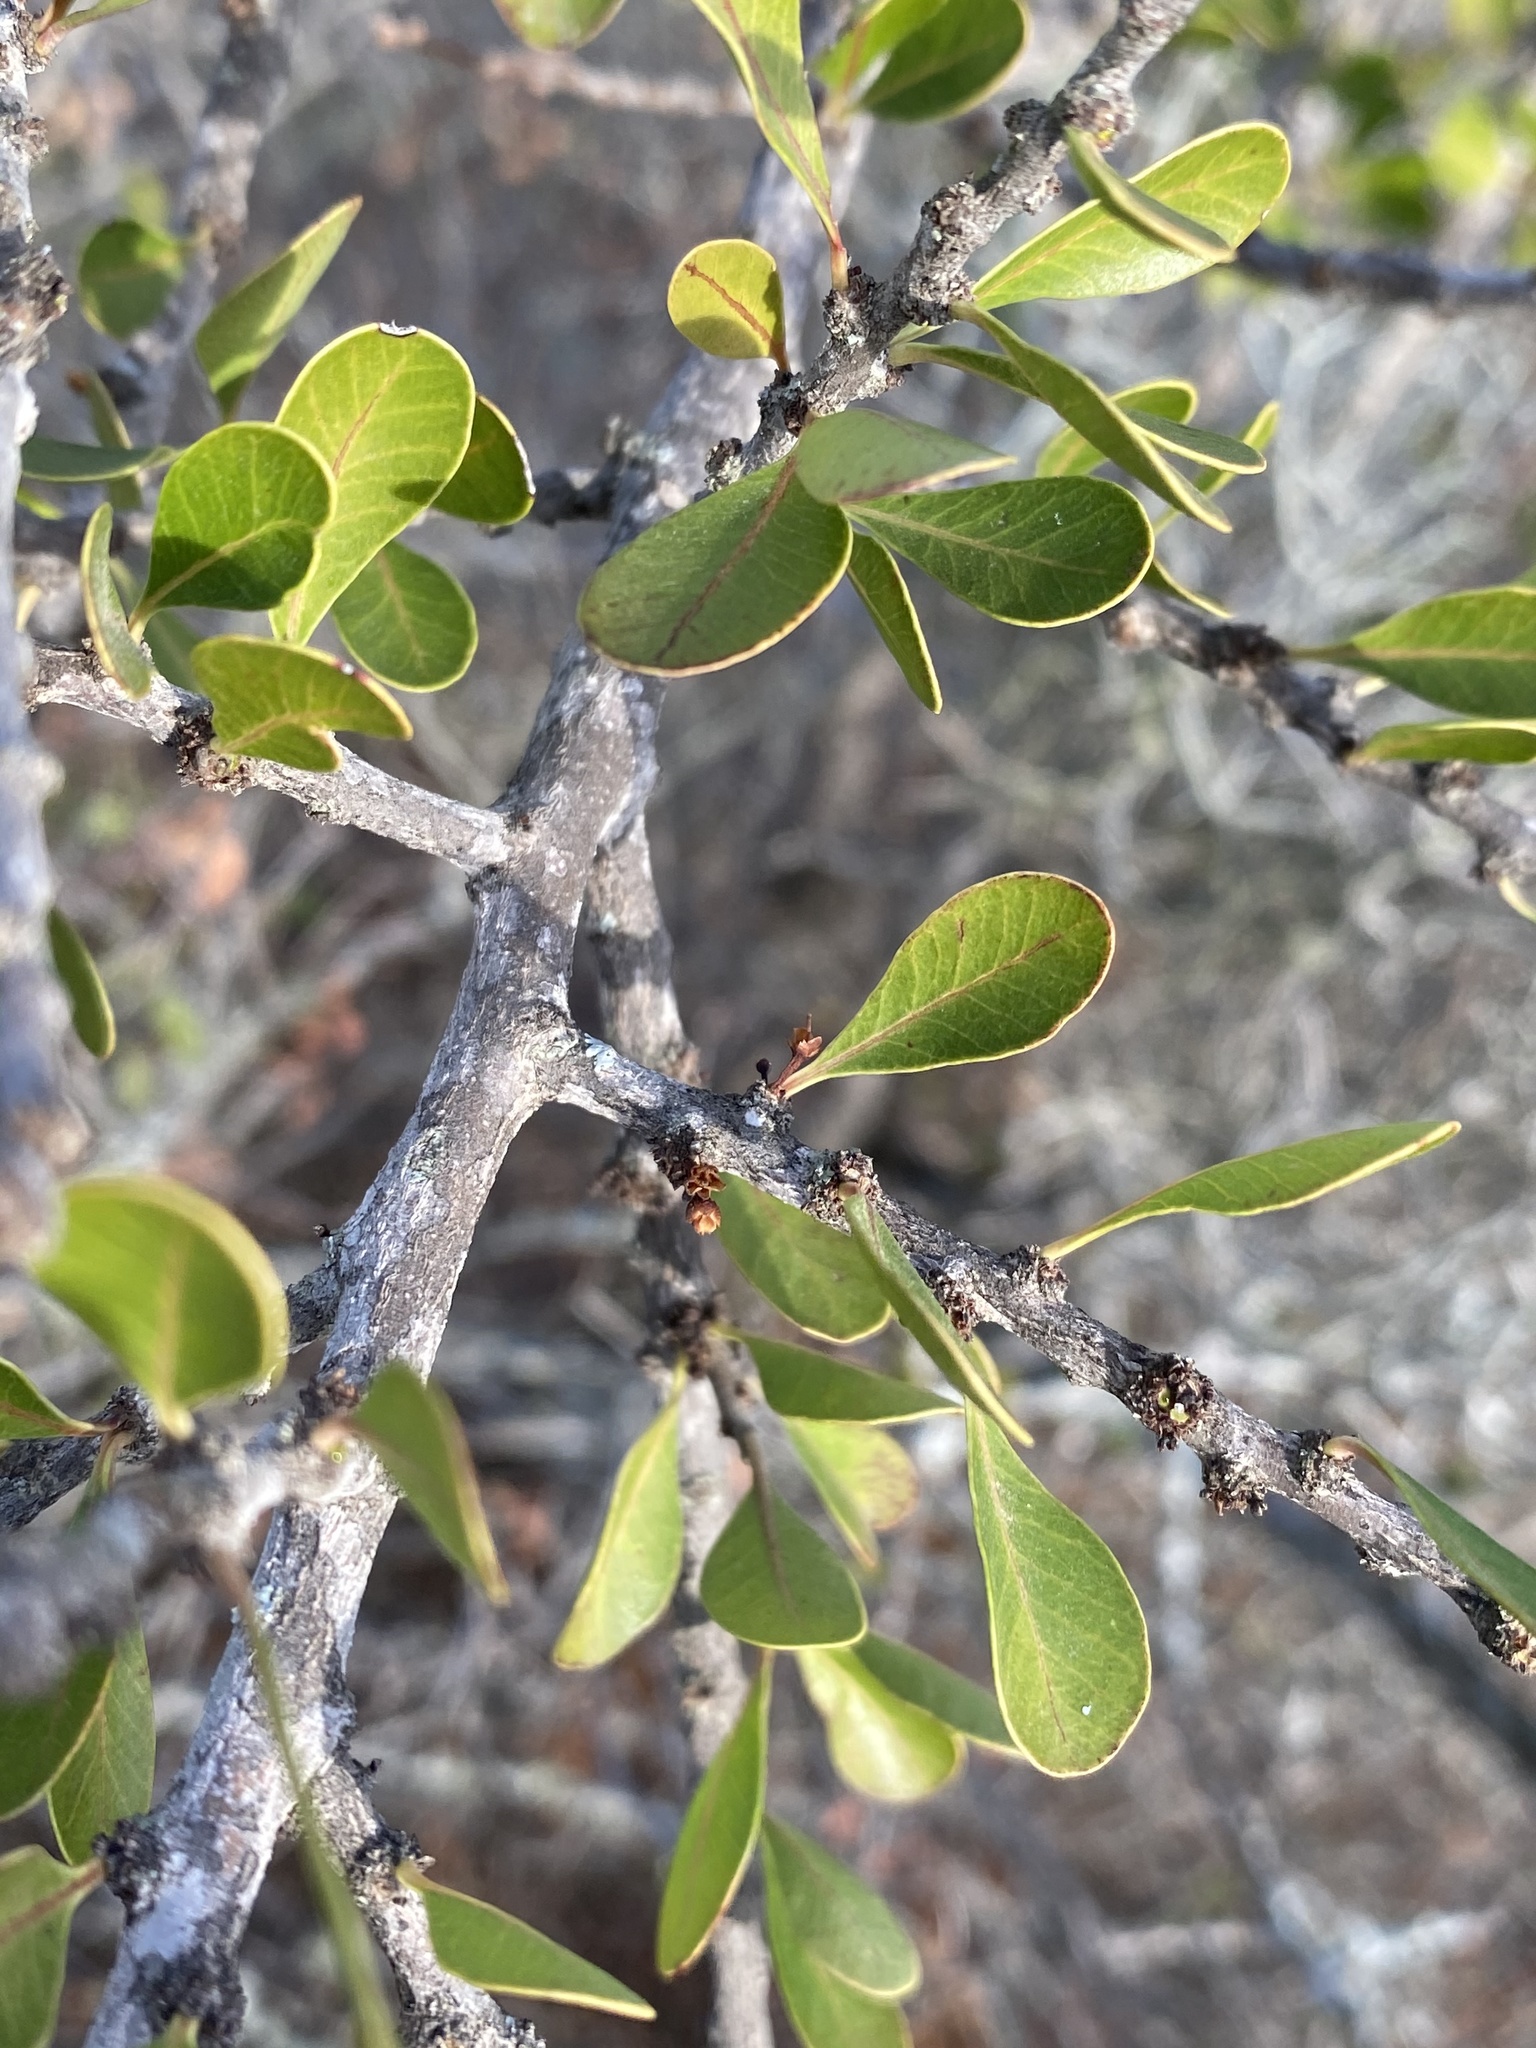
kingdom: Plantae
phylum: Tracheophyta
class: Magnoliopsida
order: Ericales
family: Sapotaceae
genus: Sideroxylon
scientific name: Sideroxylon celastrinum
